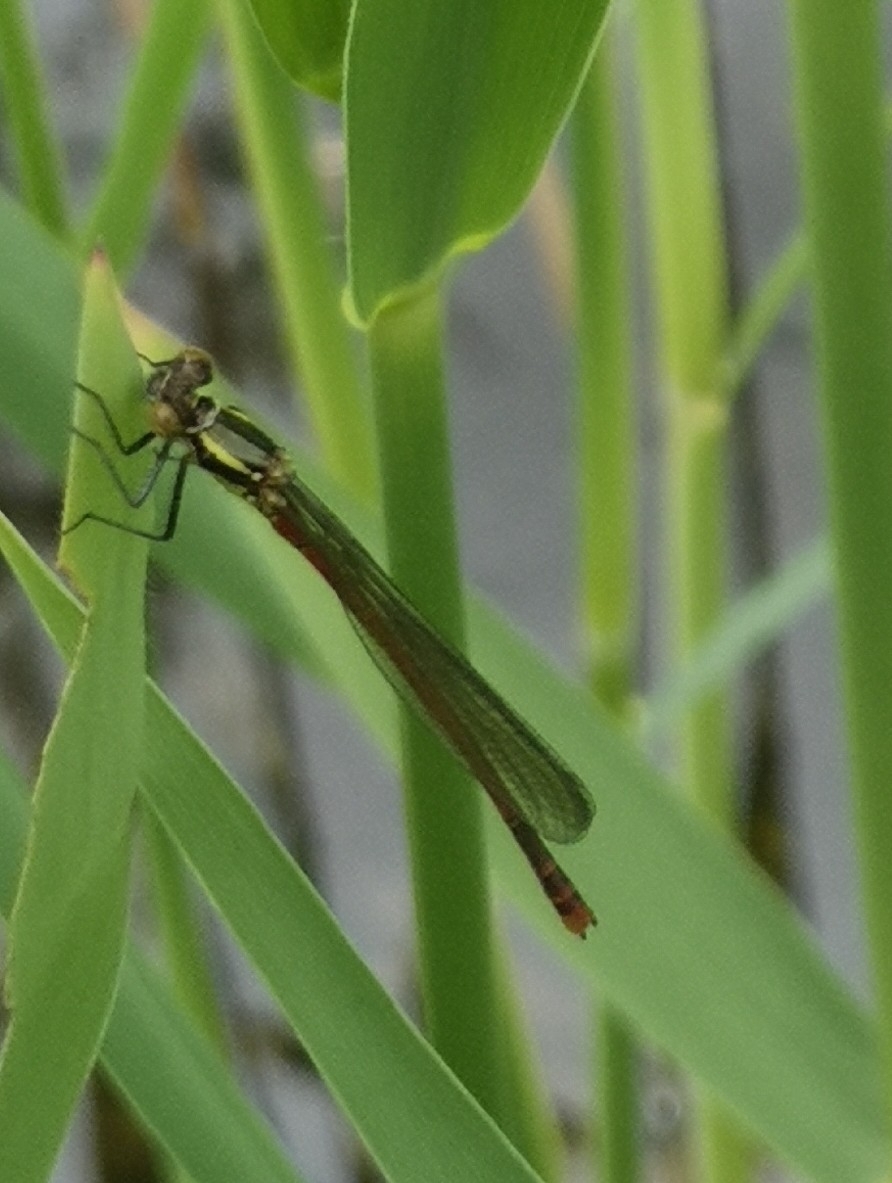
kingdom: Animalia
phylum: Arthropoda
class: Insecta
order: Odonata
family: Coenagrionidae
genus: Pyrrhosoma
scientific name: Pyrrhosoma nymphula
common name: Large red damsel
